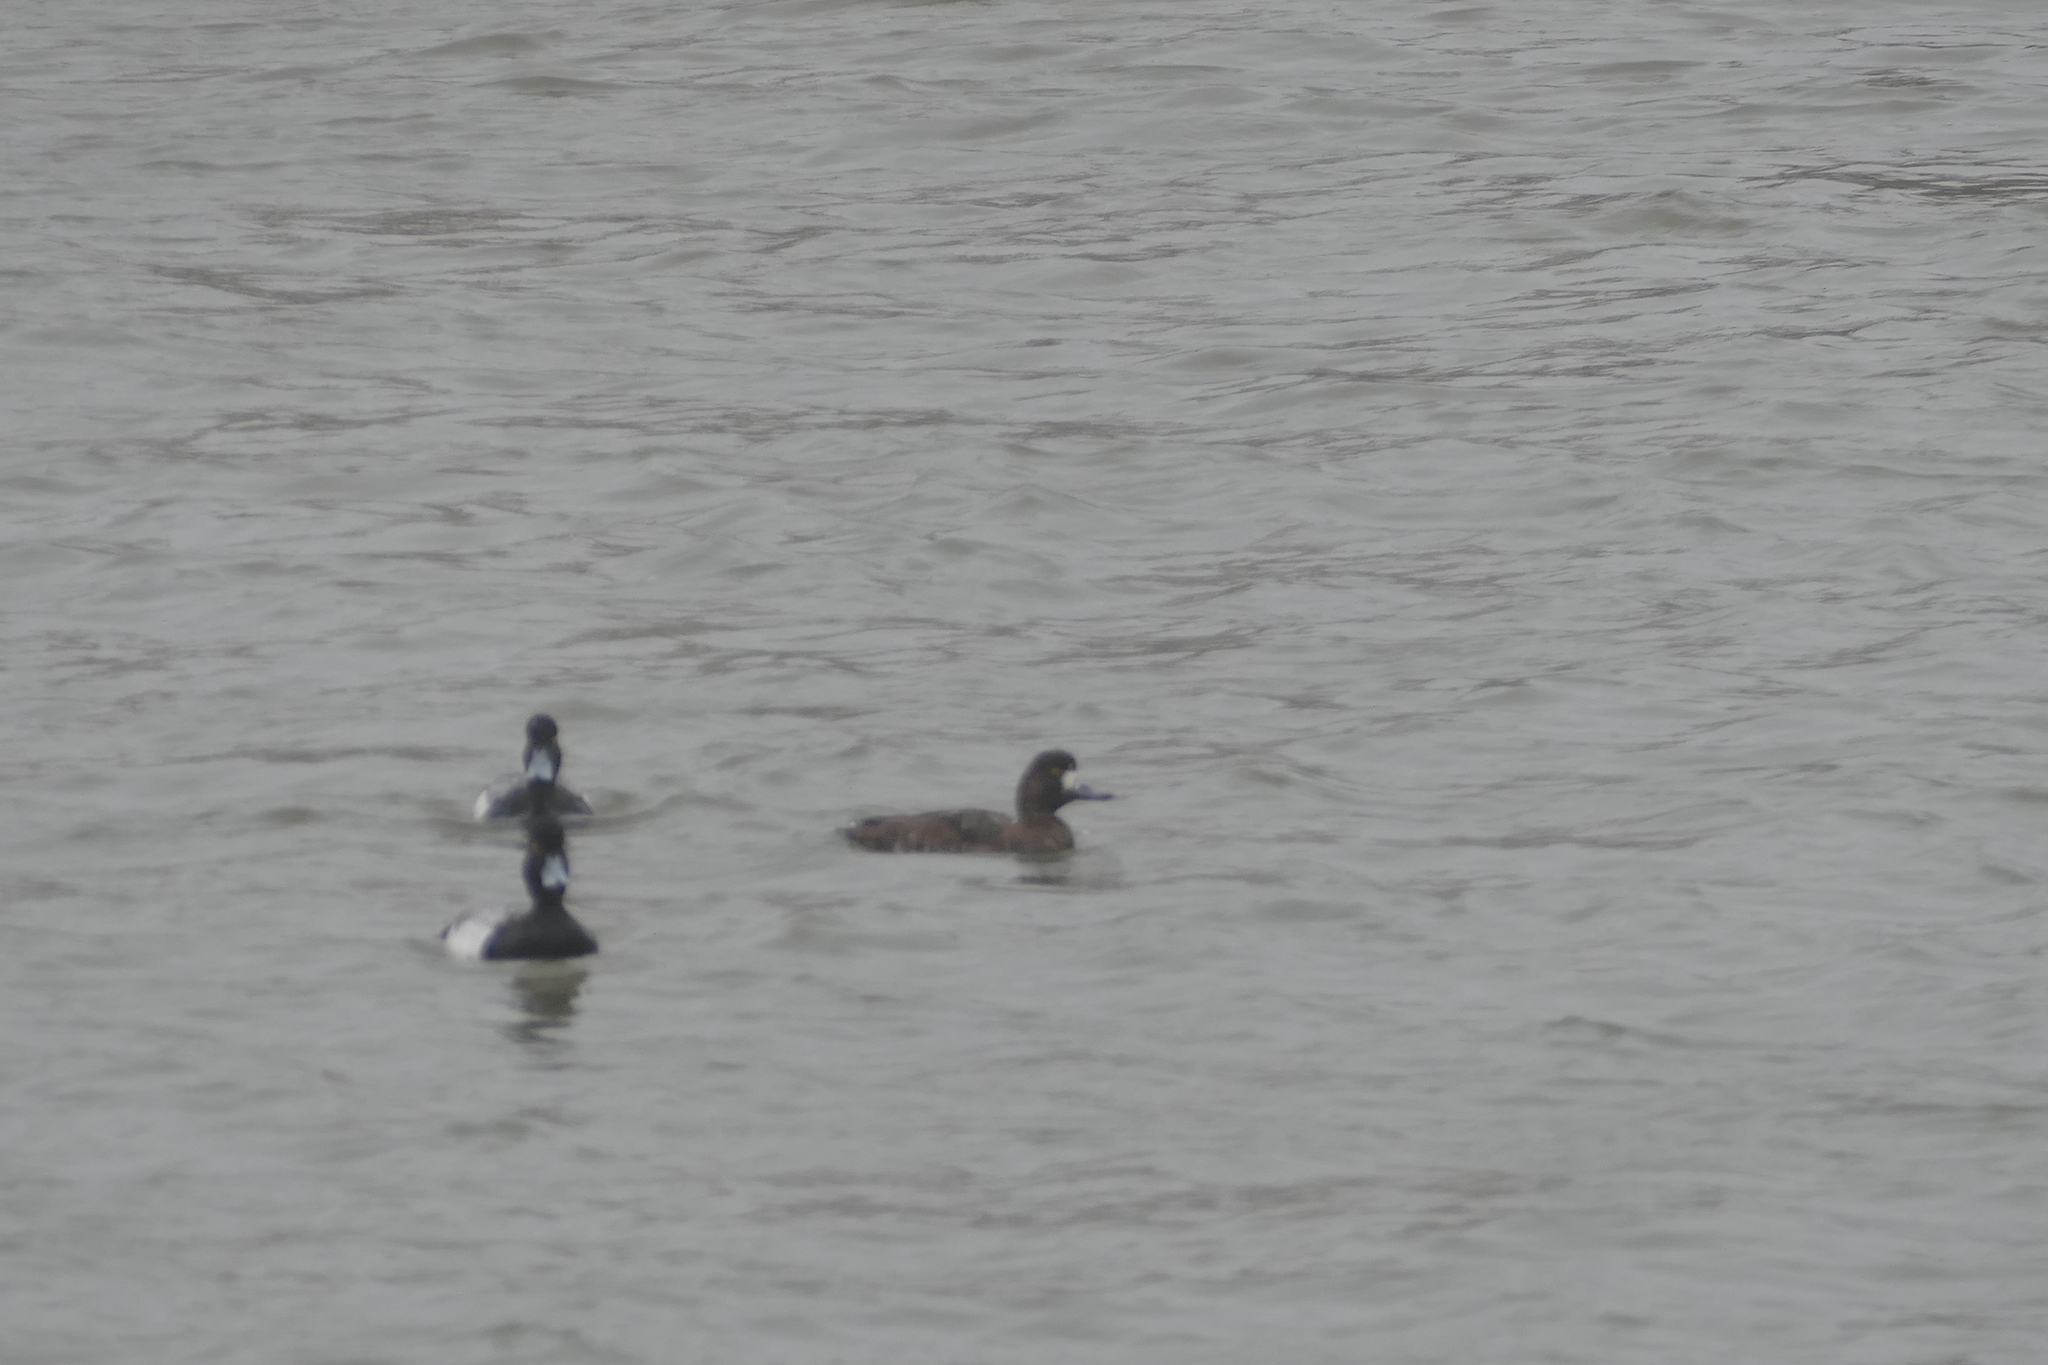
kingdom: Animalia
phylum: Chordata
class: Aves
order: Anseriformes
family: Anatidae
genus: Aythya
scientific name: Aythya affinis
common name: Lesser scaup
